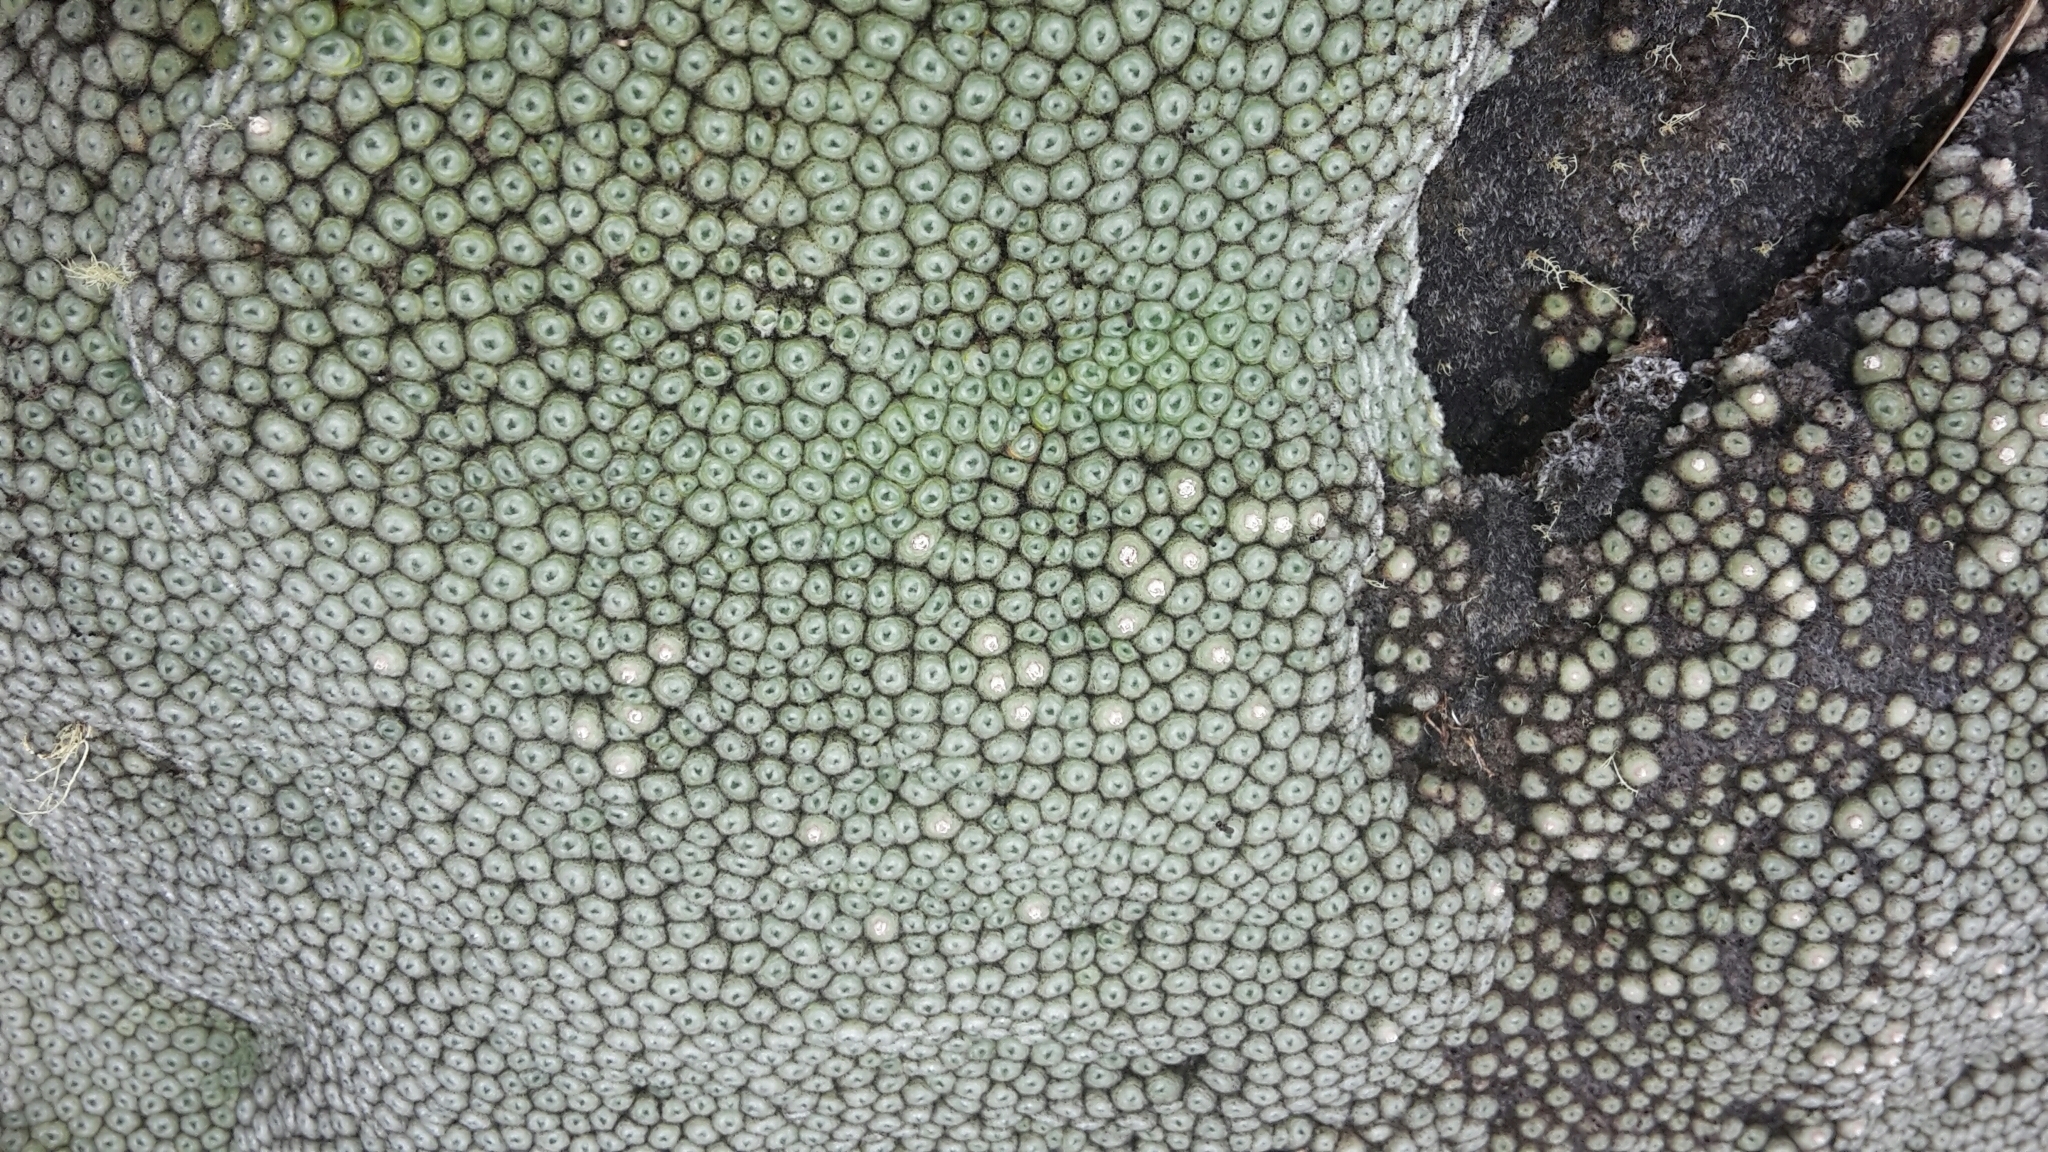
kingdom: Plantae
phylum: Tracheophyta
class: Magnoliopsida
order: Asterales
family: Asteraceae
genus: Raoulia
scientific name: Raoulia rubra
